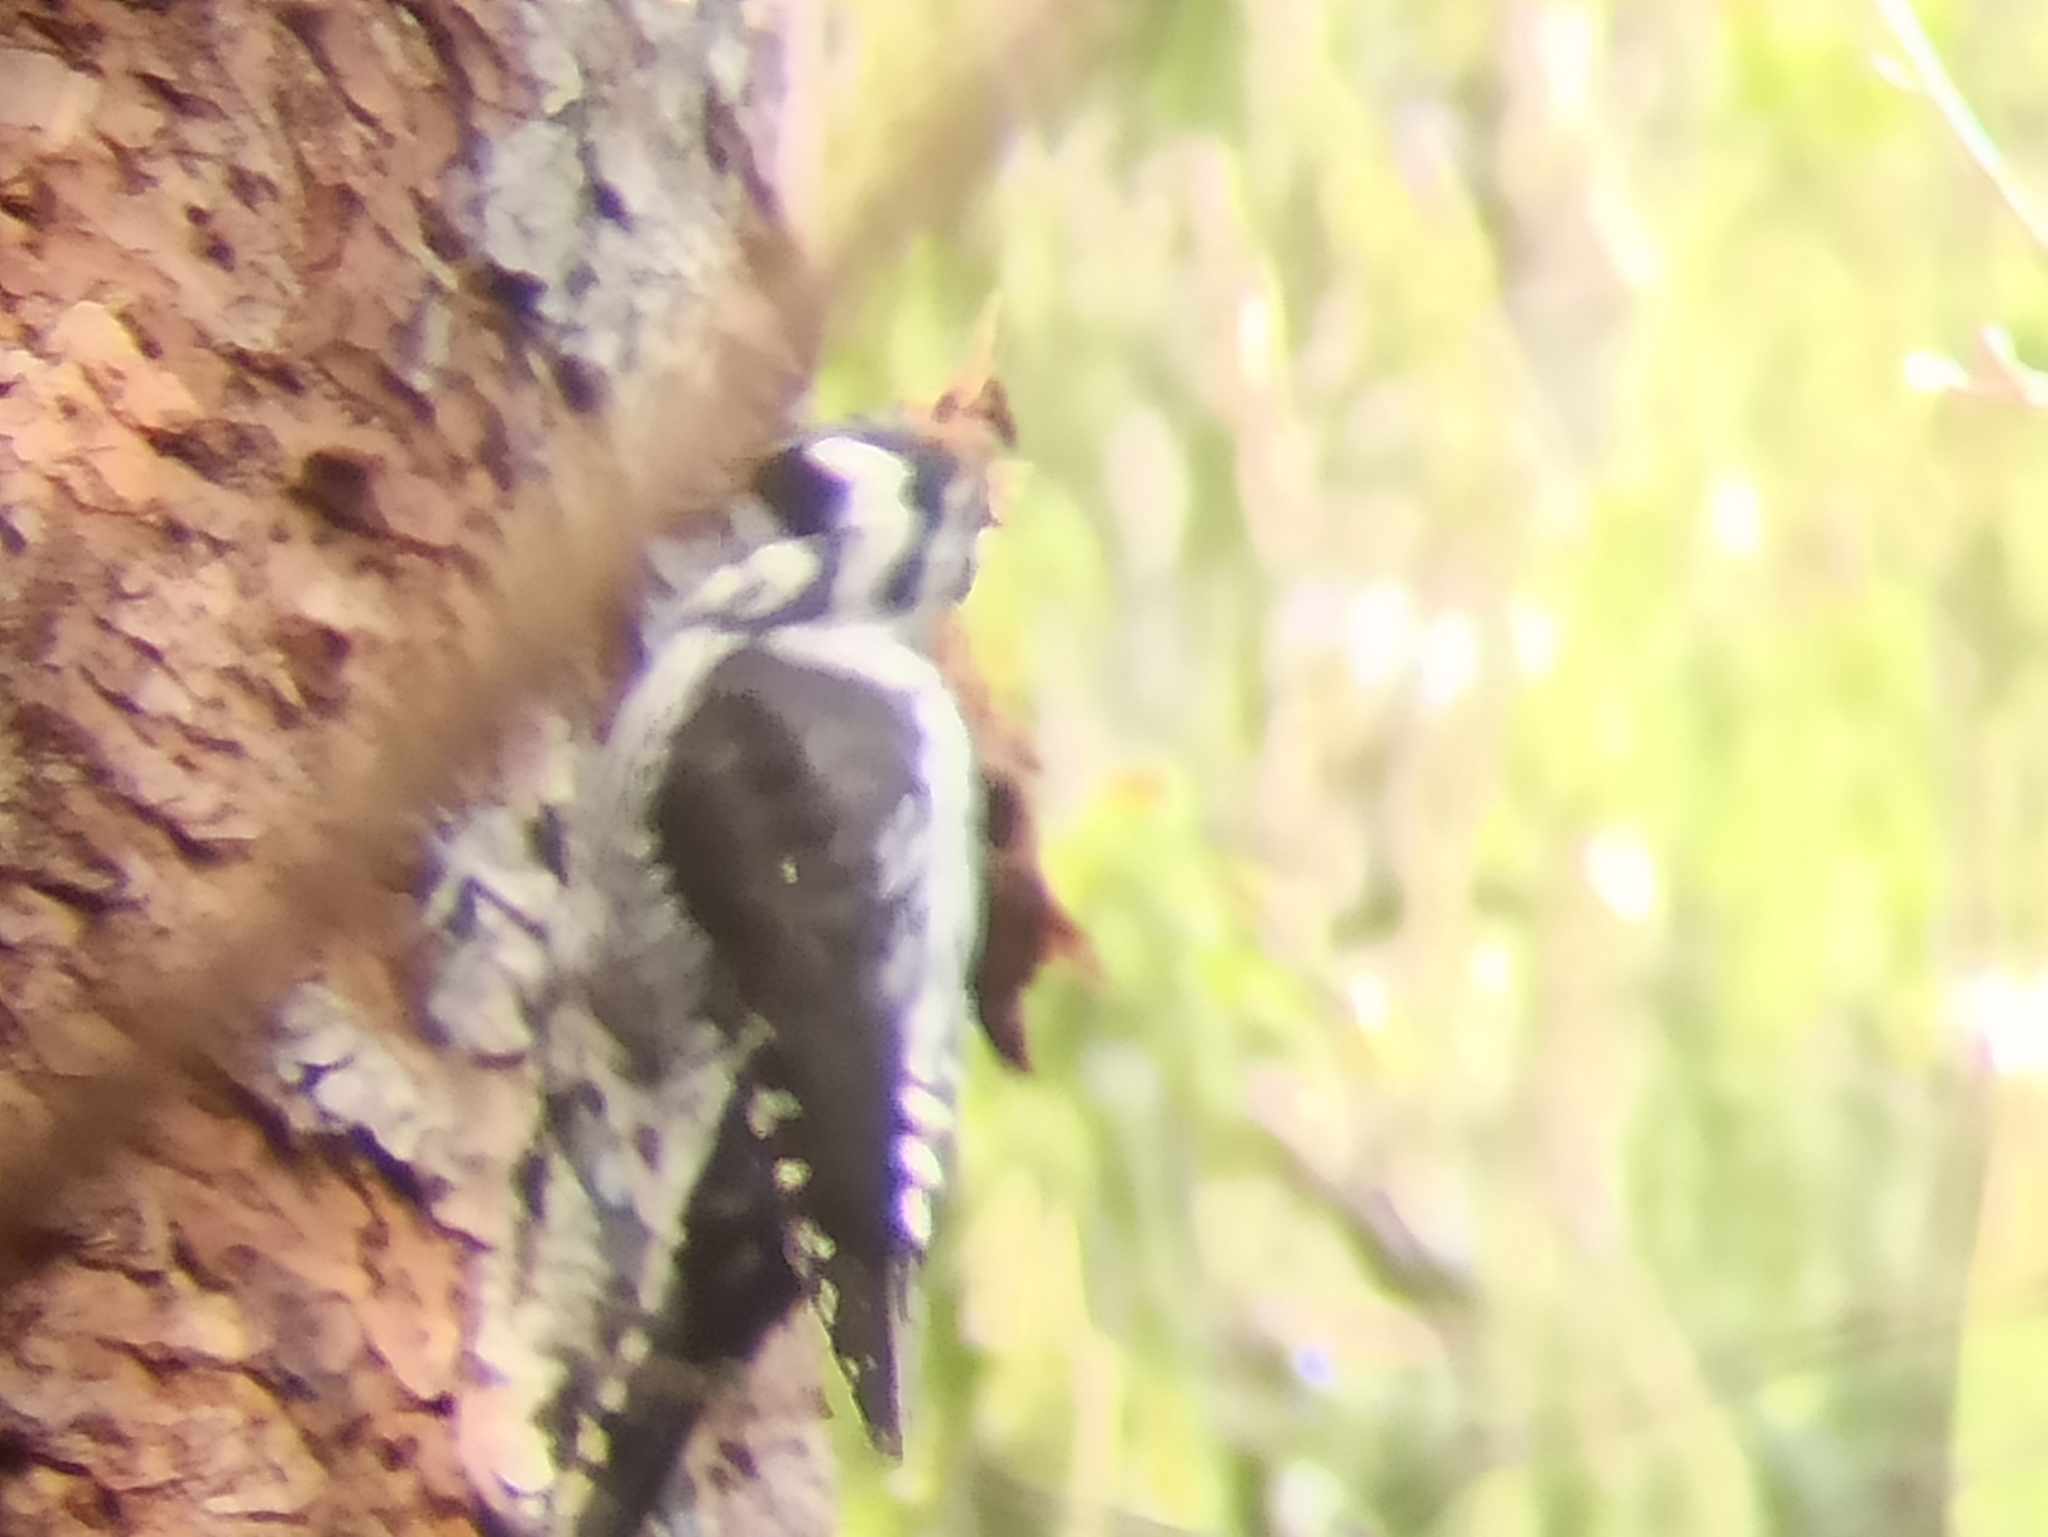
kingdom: Animalia
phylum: Chordata
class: Aves
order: Piciformes
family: Picidae
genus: Picoides
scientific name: Picoides tridactylus
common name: Eurasian three-toed woodpecker
